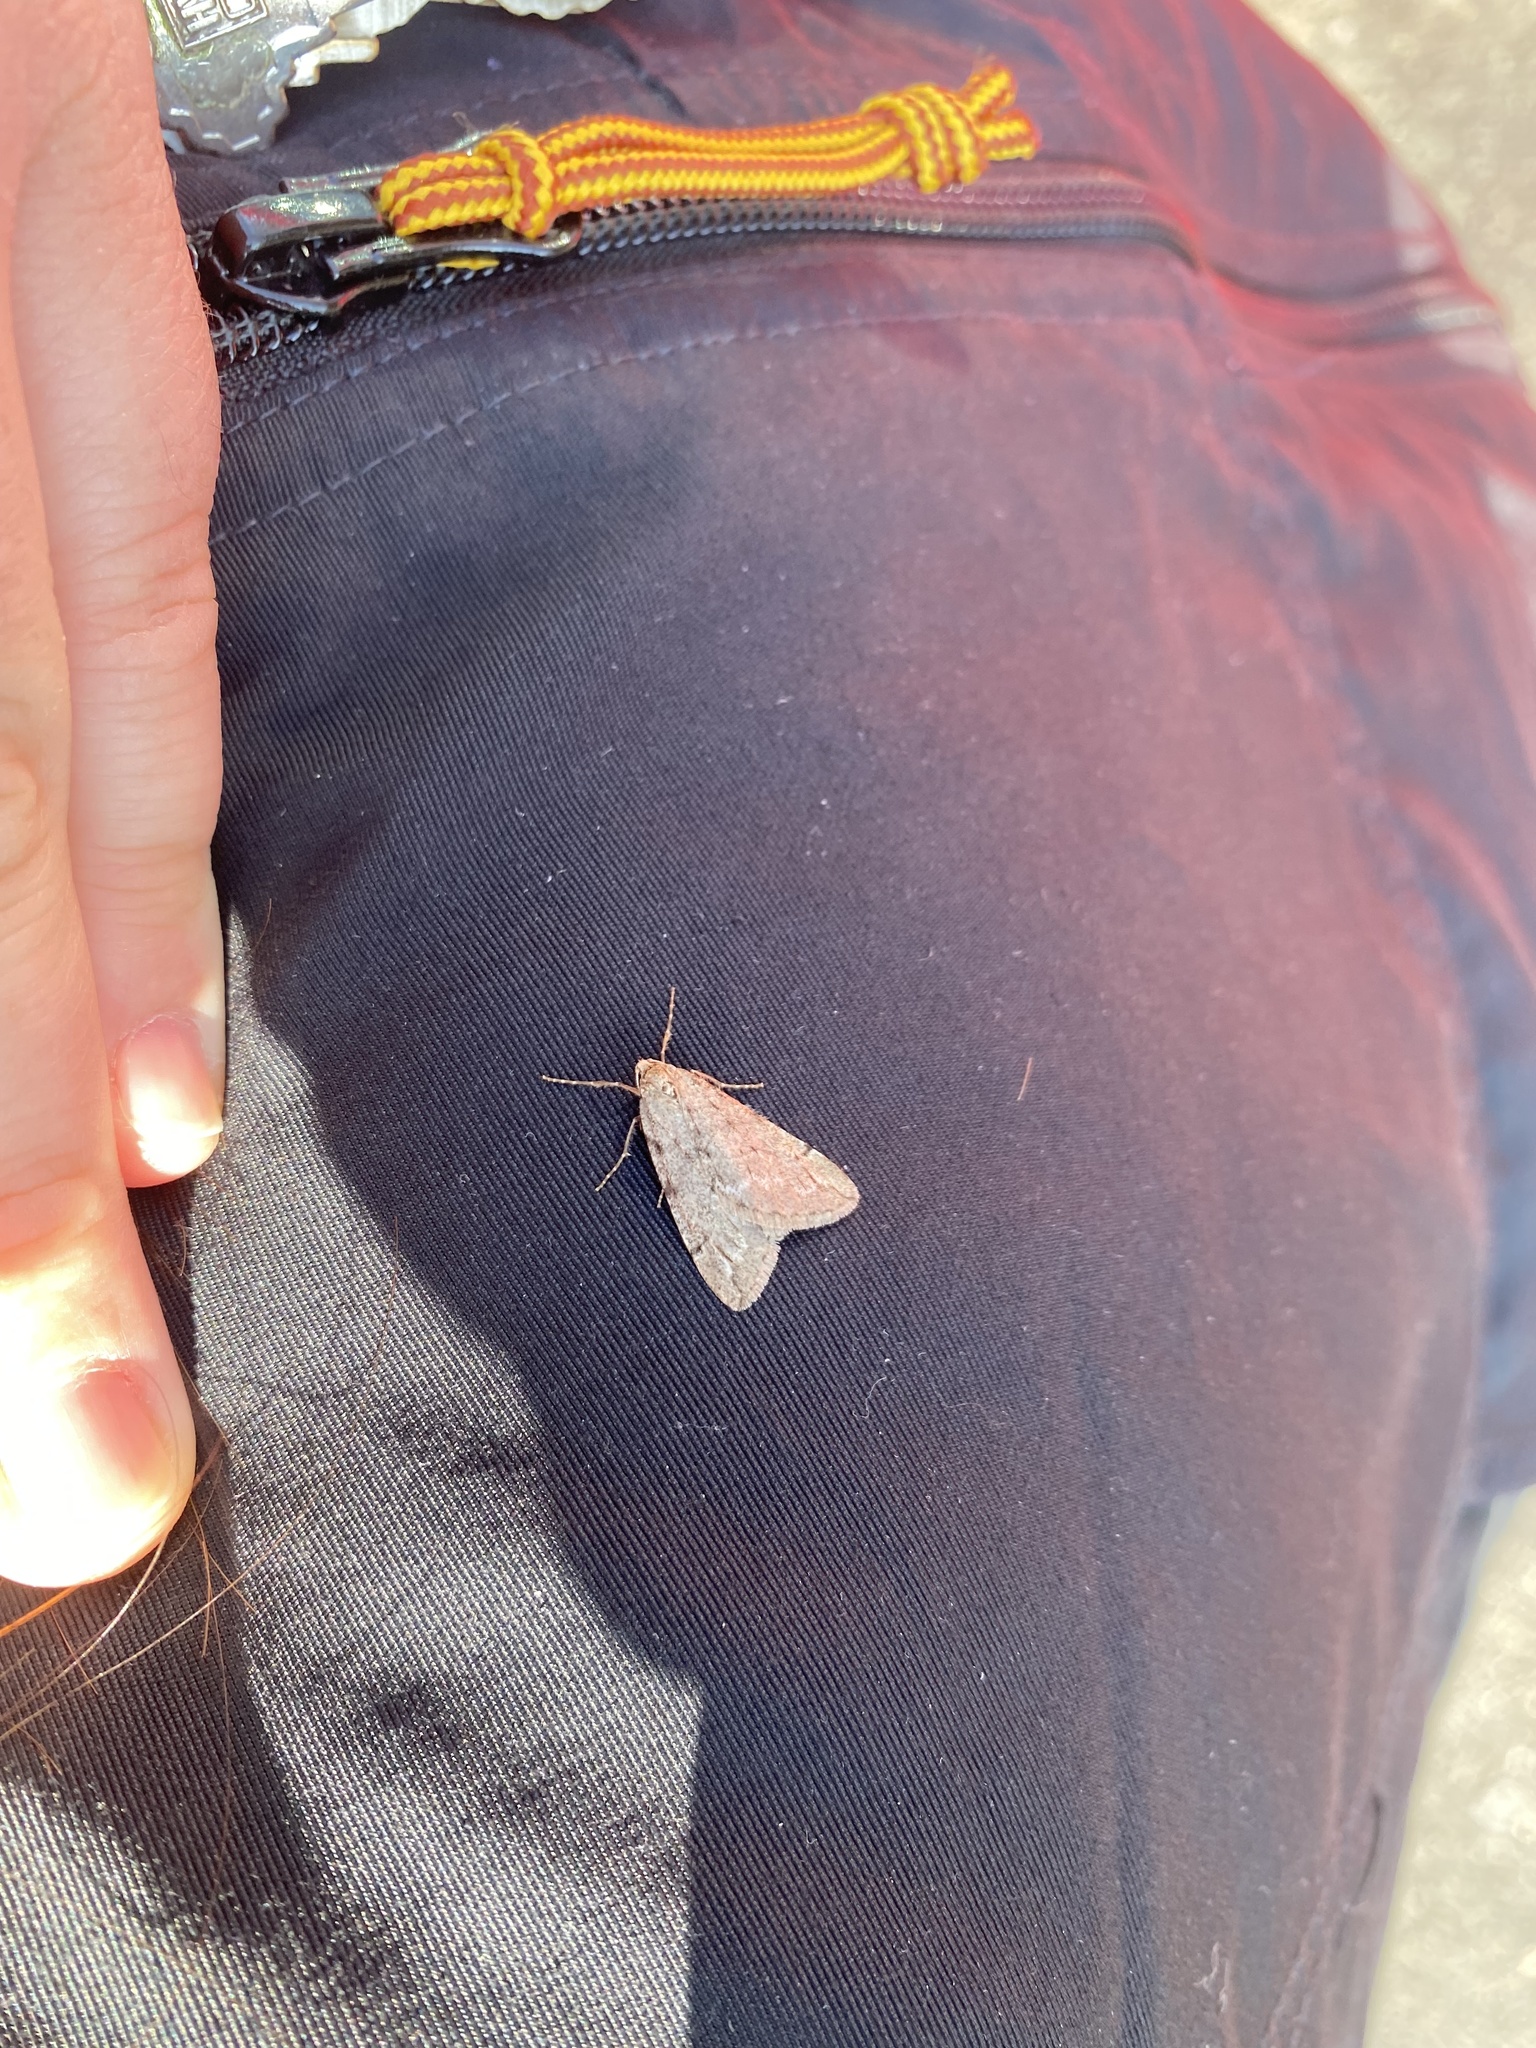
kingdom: Animalia
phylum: Arthropoda
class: Insecta
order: Lepidoptera
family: Geometridae
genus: Paleacrita
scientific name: Paleacrita vernata
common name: Spring cankerworm
